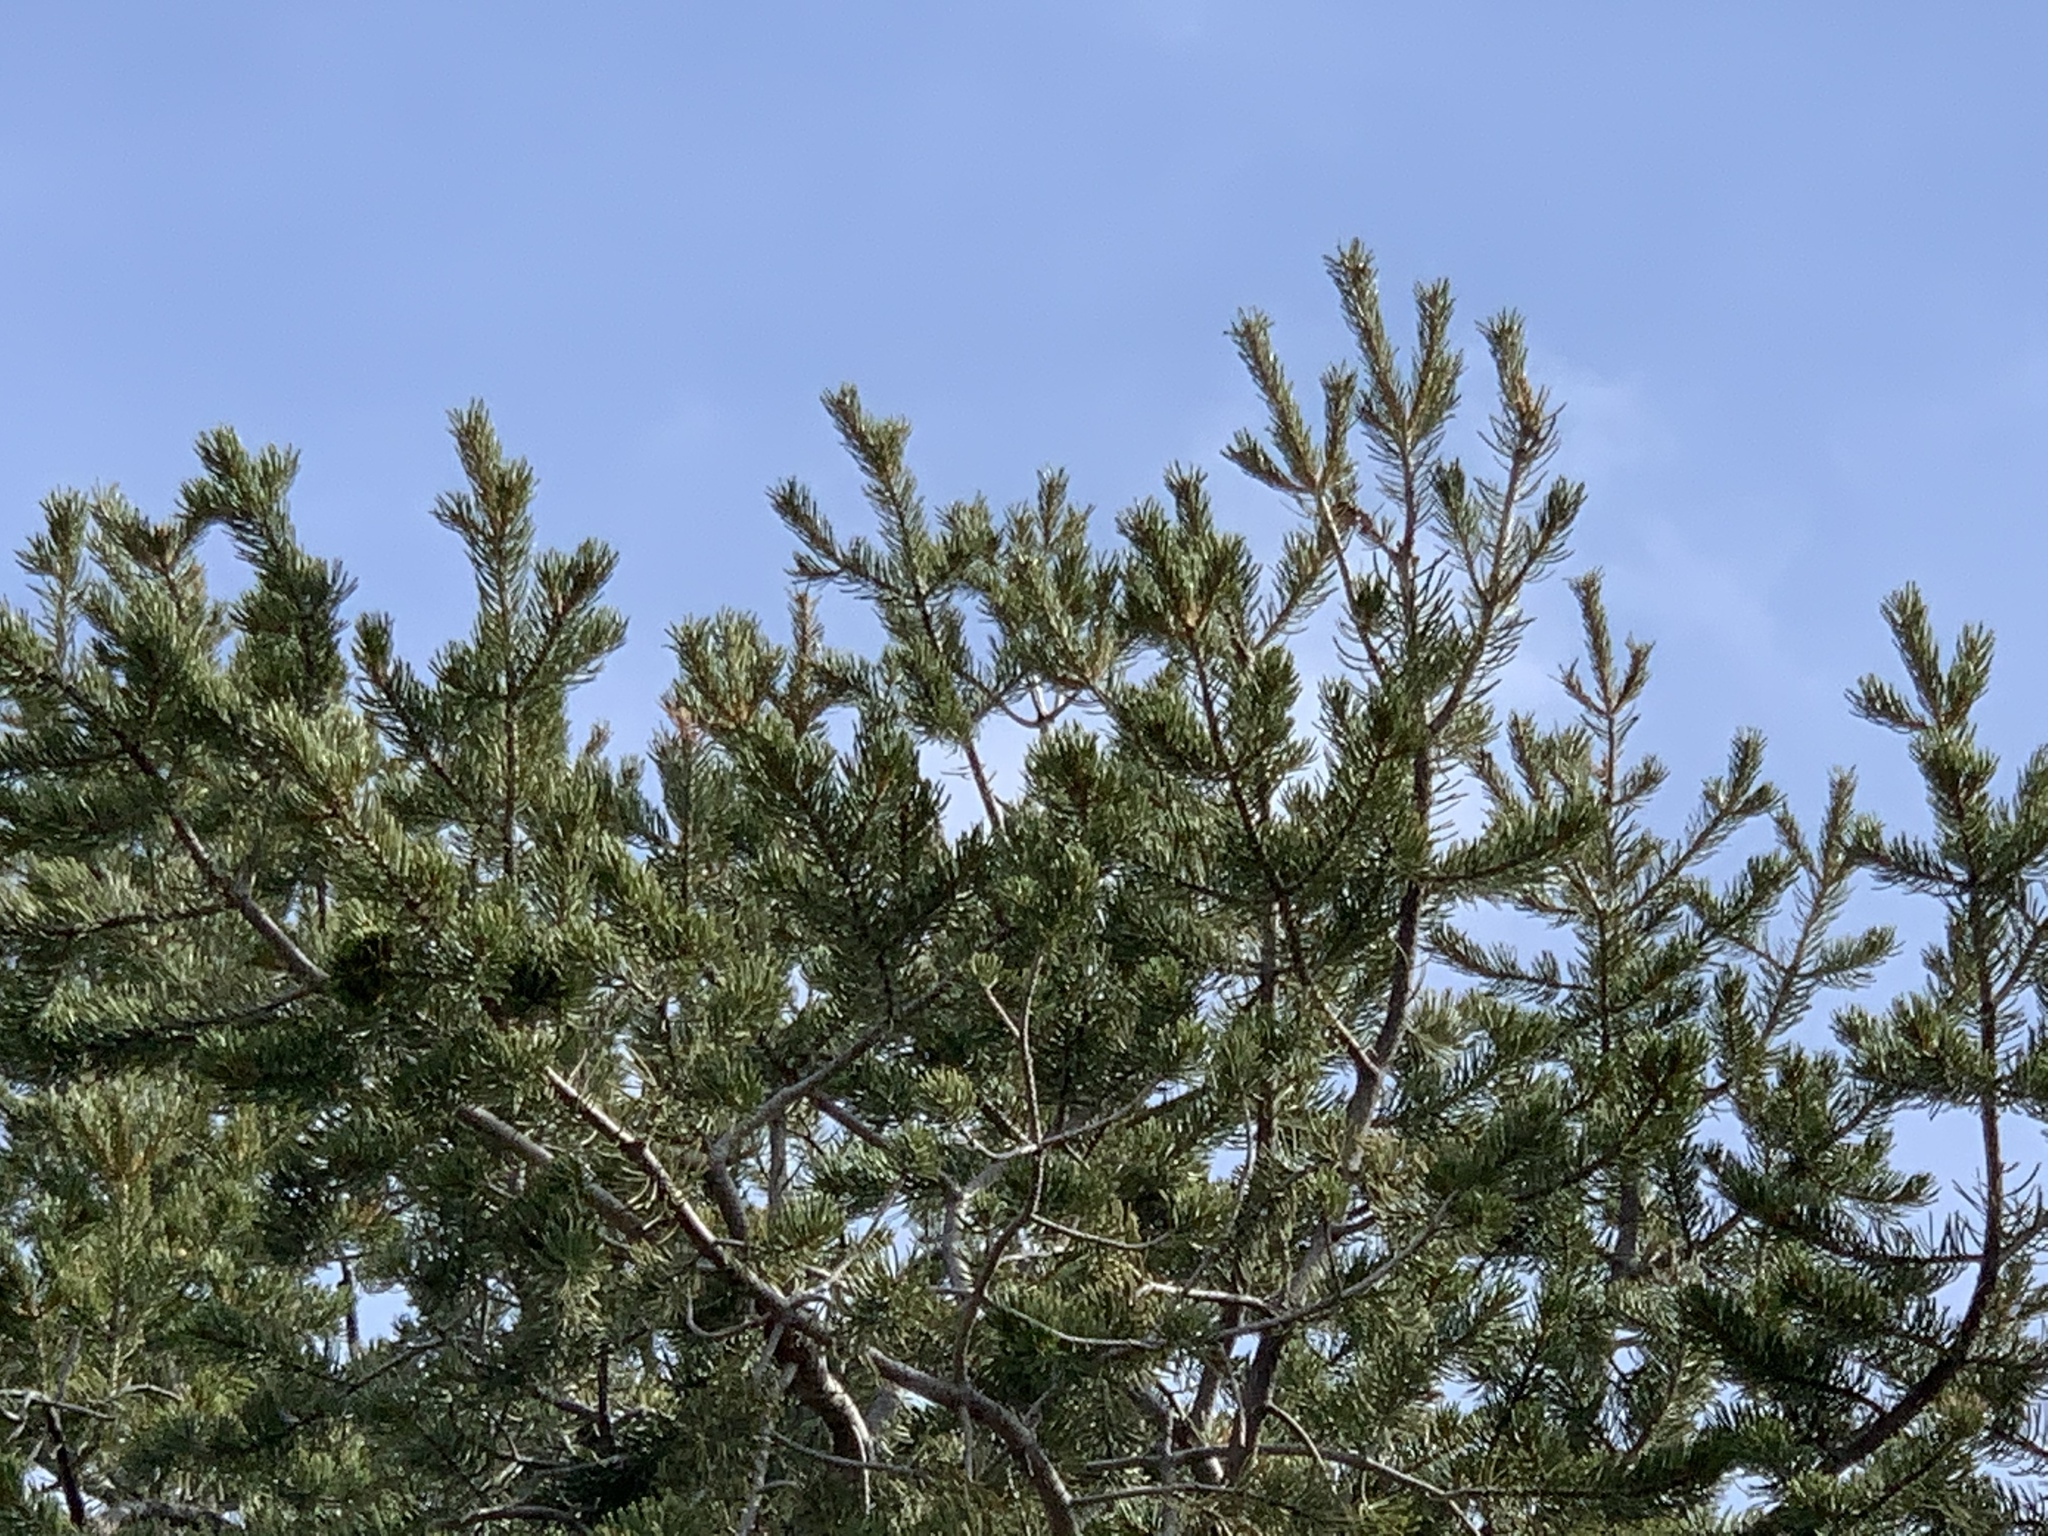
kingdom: Plantae
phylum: Tracheophyta
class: Pinopsida
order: Pinales
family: Pinaceae
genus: Pinus
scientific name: Pinus edulis
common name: Colorado pinyon
